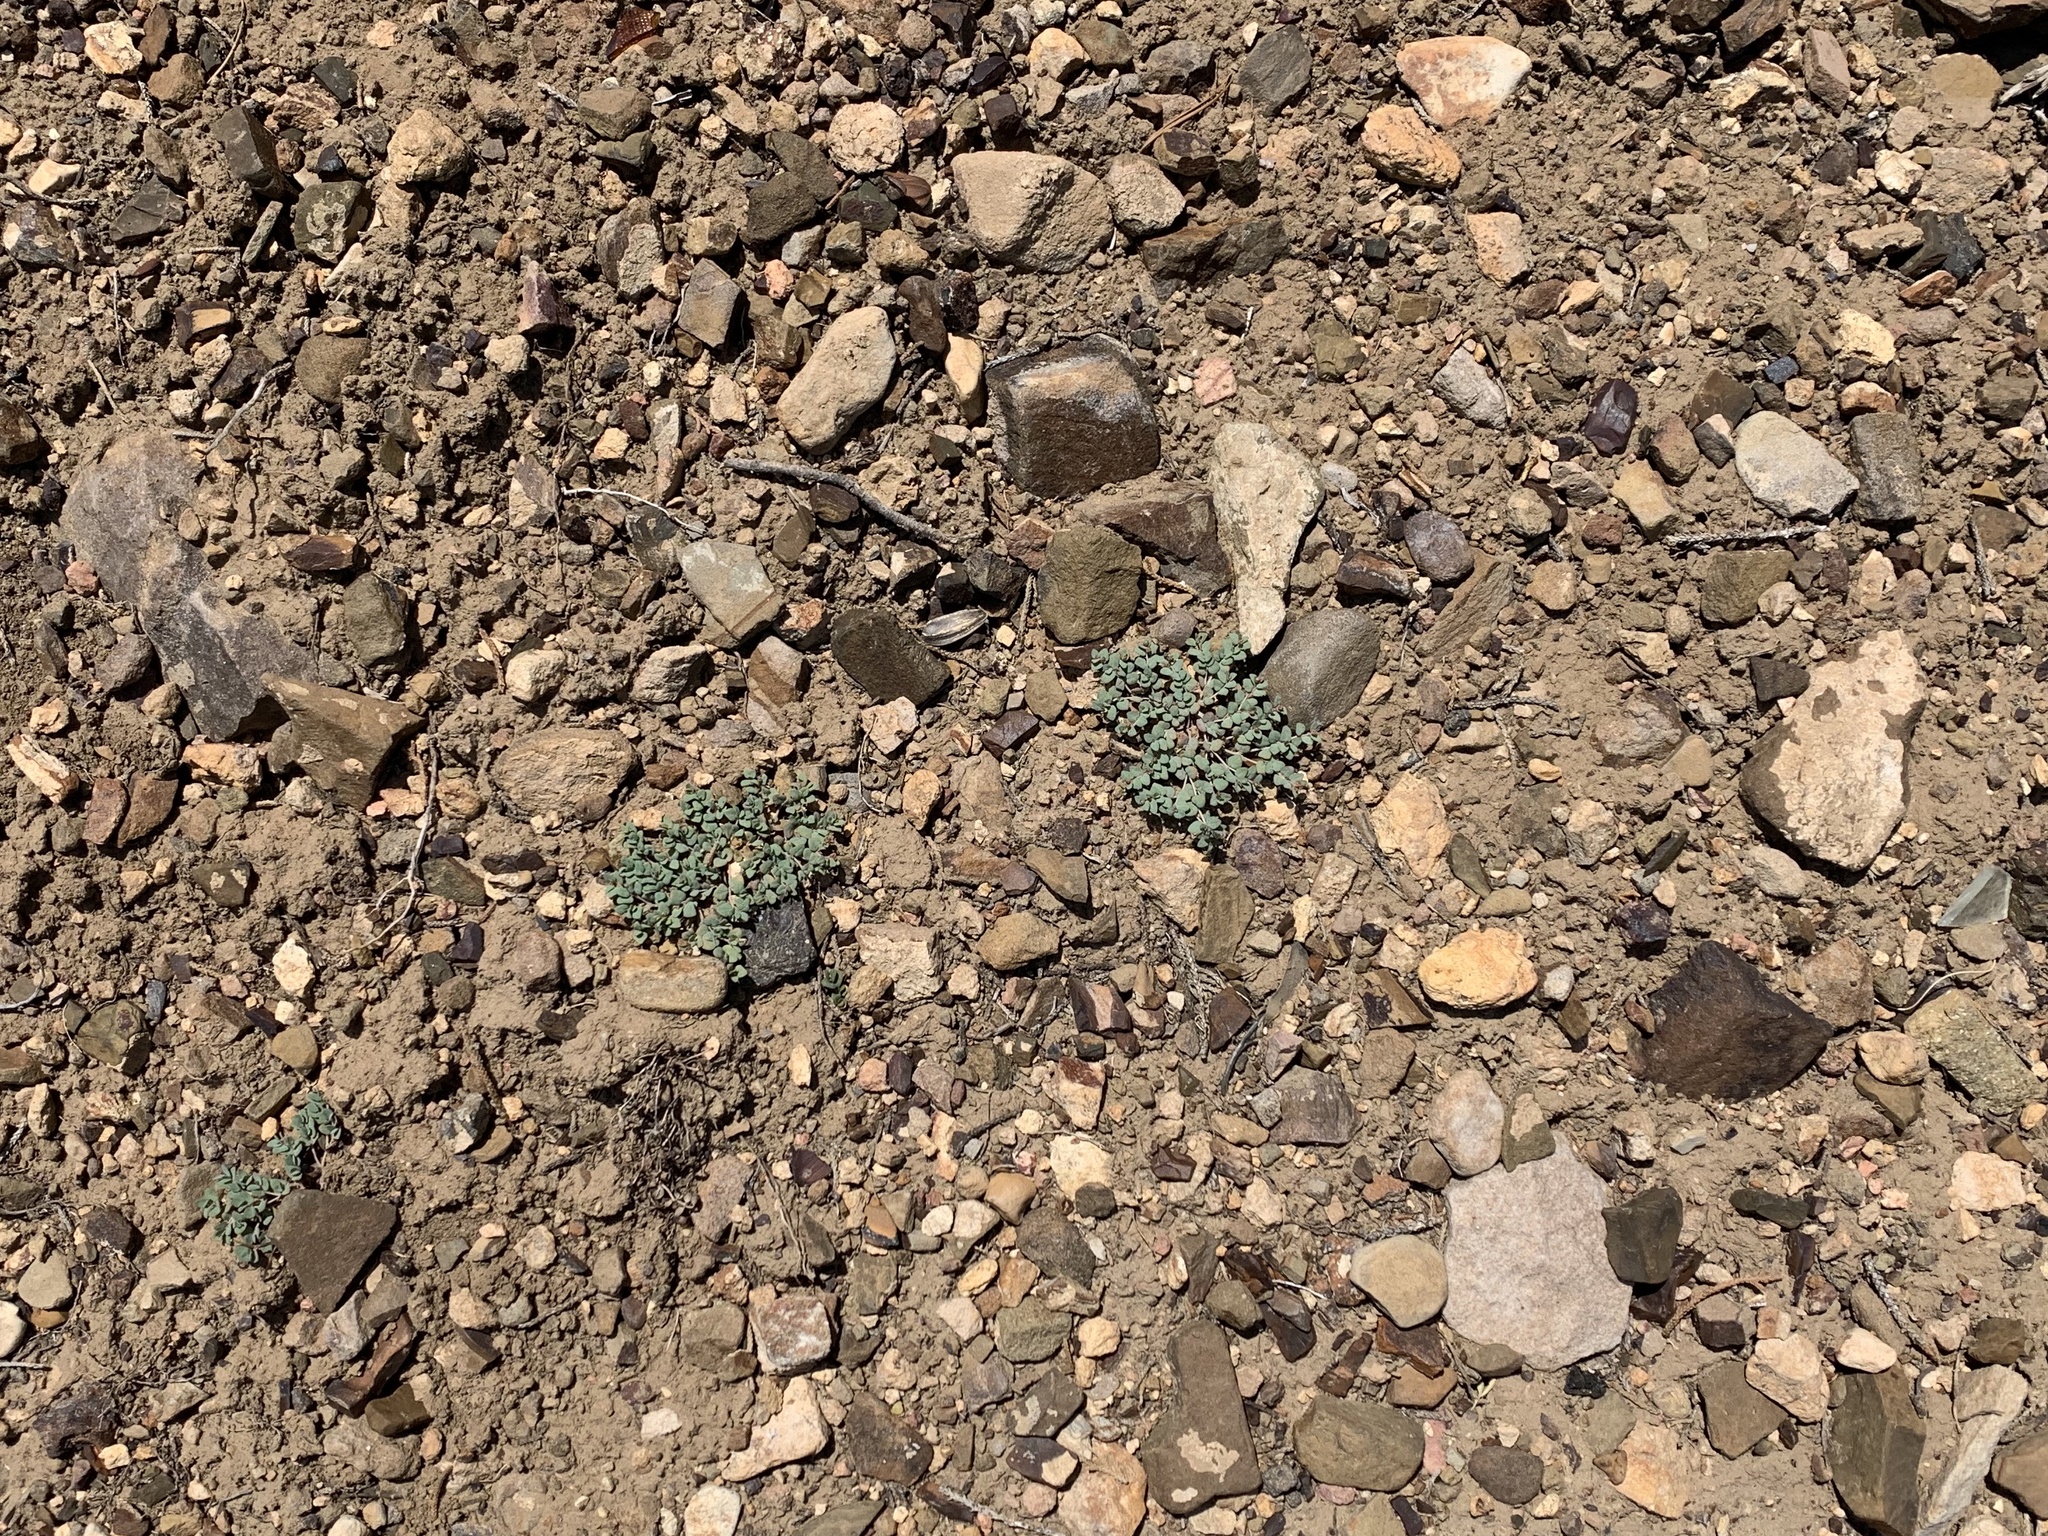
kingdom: Plantae
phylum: Tracheophyta
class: Magnoliopsida
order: Malpighiales
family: Euphorbiaceae
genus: Euphorbia
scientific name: Euphorbia fendleri
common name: Fendler's euphorbia
